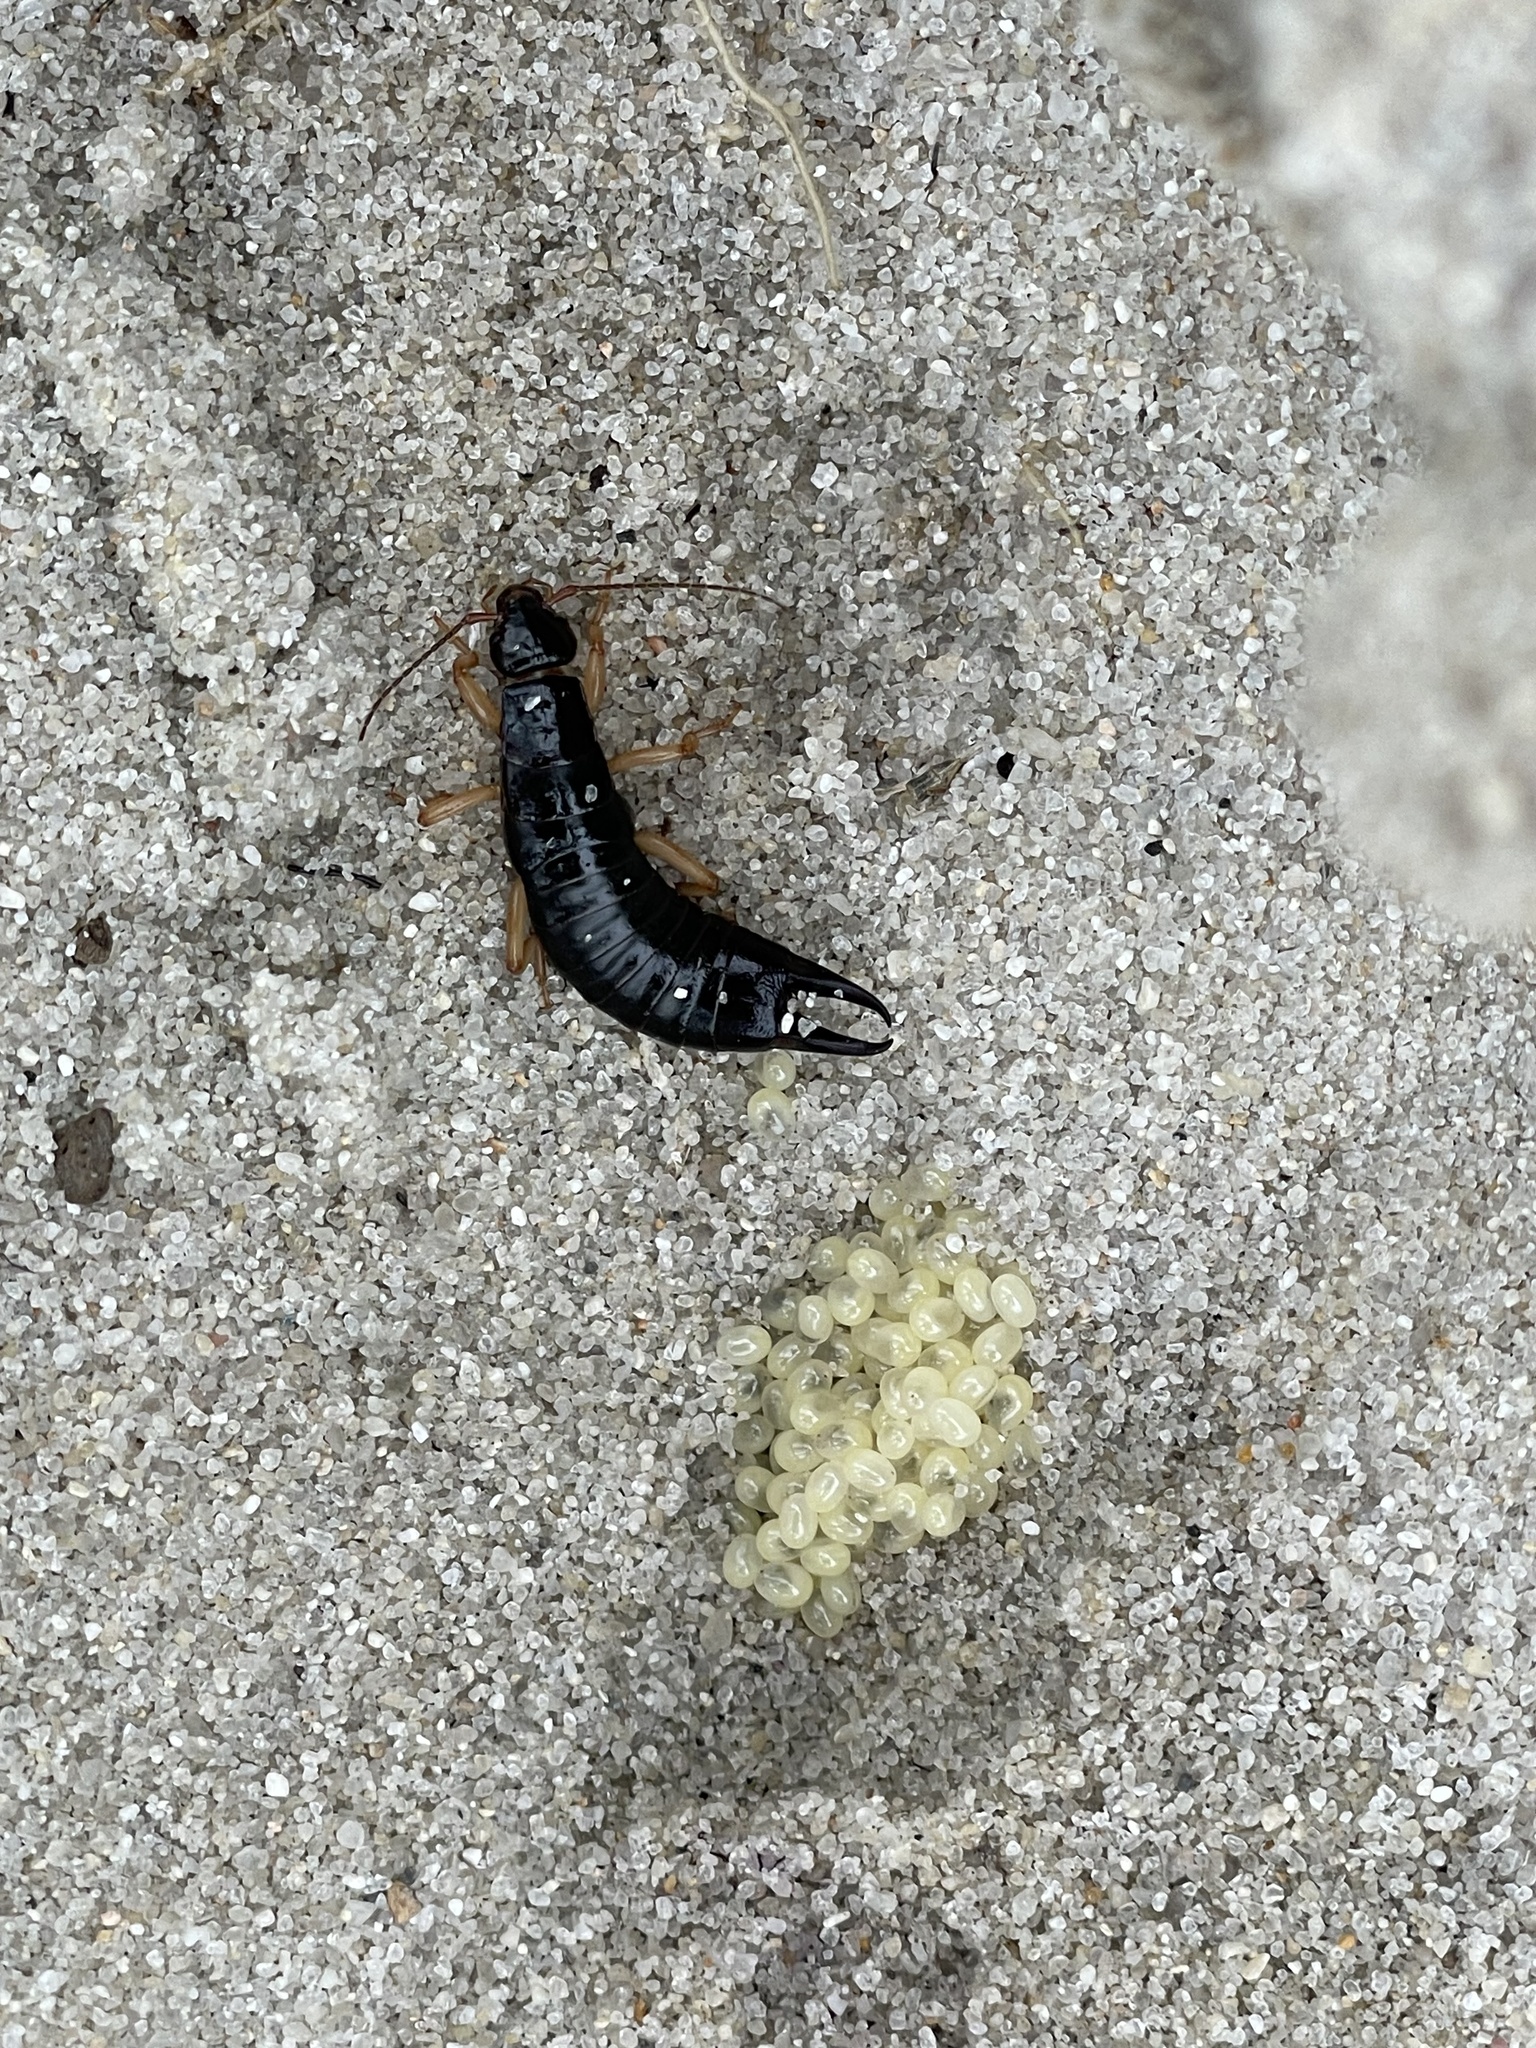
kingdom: Animalia
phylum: Arthropoda
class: Insecta
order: Dermaptera
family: Anisolabididae
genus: Anisolabis
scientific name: Anisolabis maritima
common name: Maritime earwig
